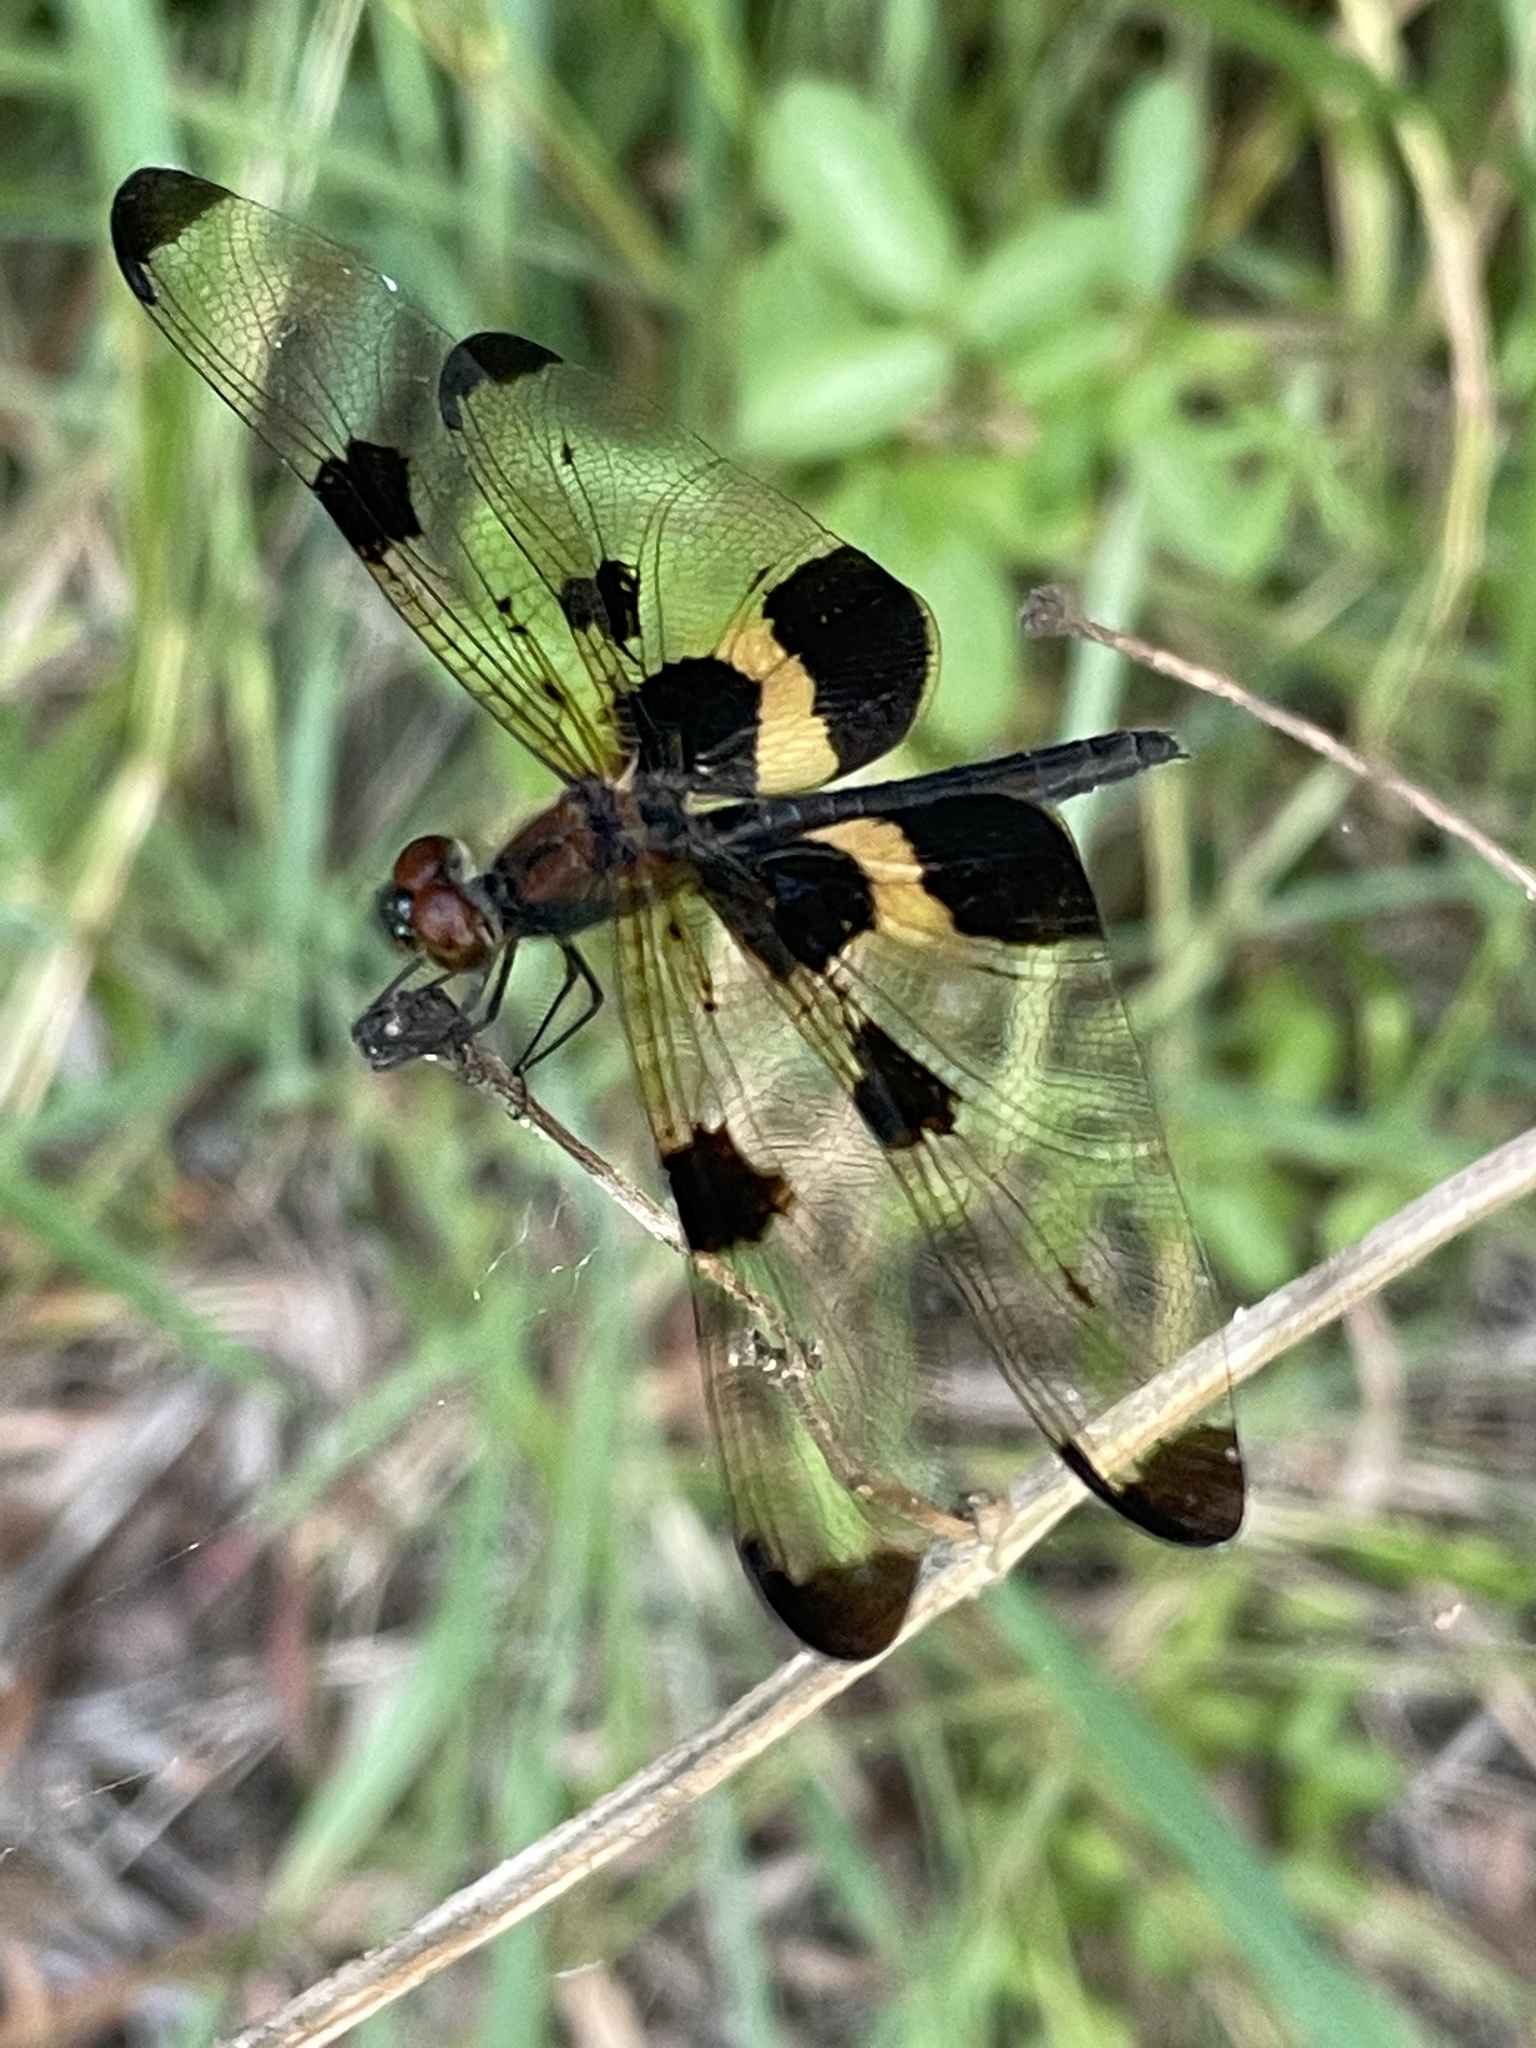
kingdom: Animalia
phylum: Arthropoda
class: Insecta
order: Odonata
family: Libellulidae
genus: Rhyothemis
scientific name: Rhyothemis phyllis
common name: Yellow-barred flutterer
